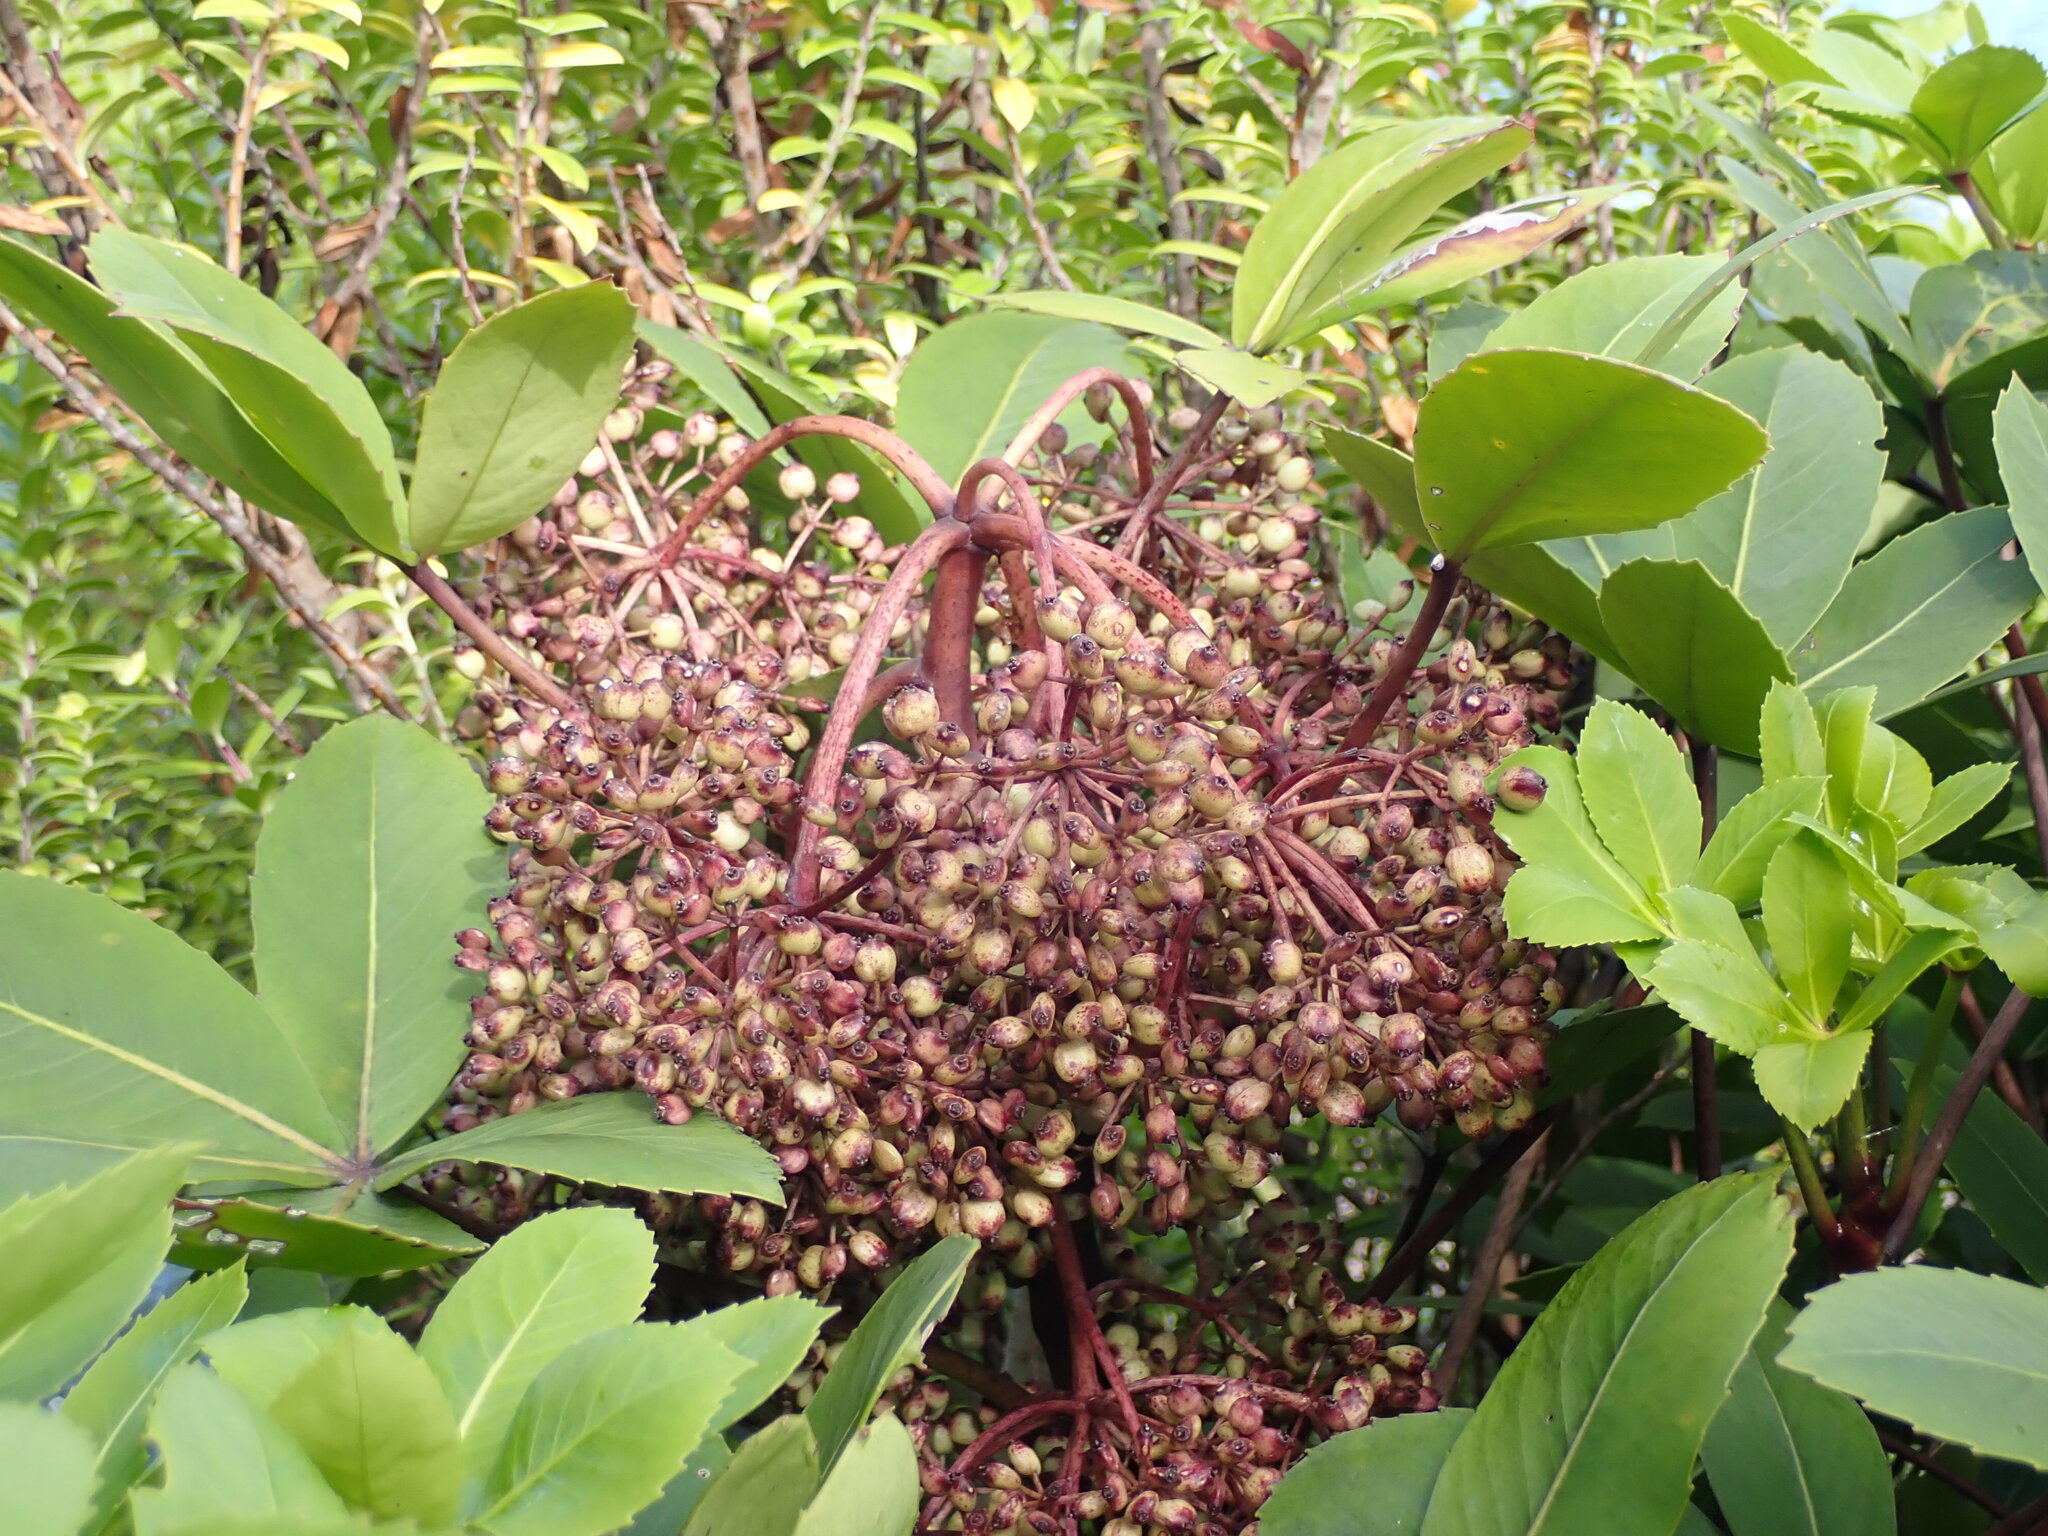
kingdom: Plantae
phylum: Tracheophyta
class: Magnoliopsida
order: Apiales
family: Araliaceae
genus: Neopanax
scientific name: Neopanax colensoi
